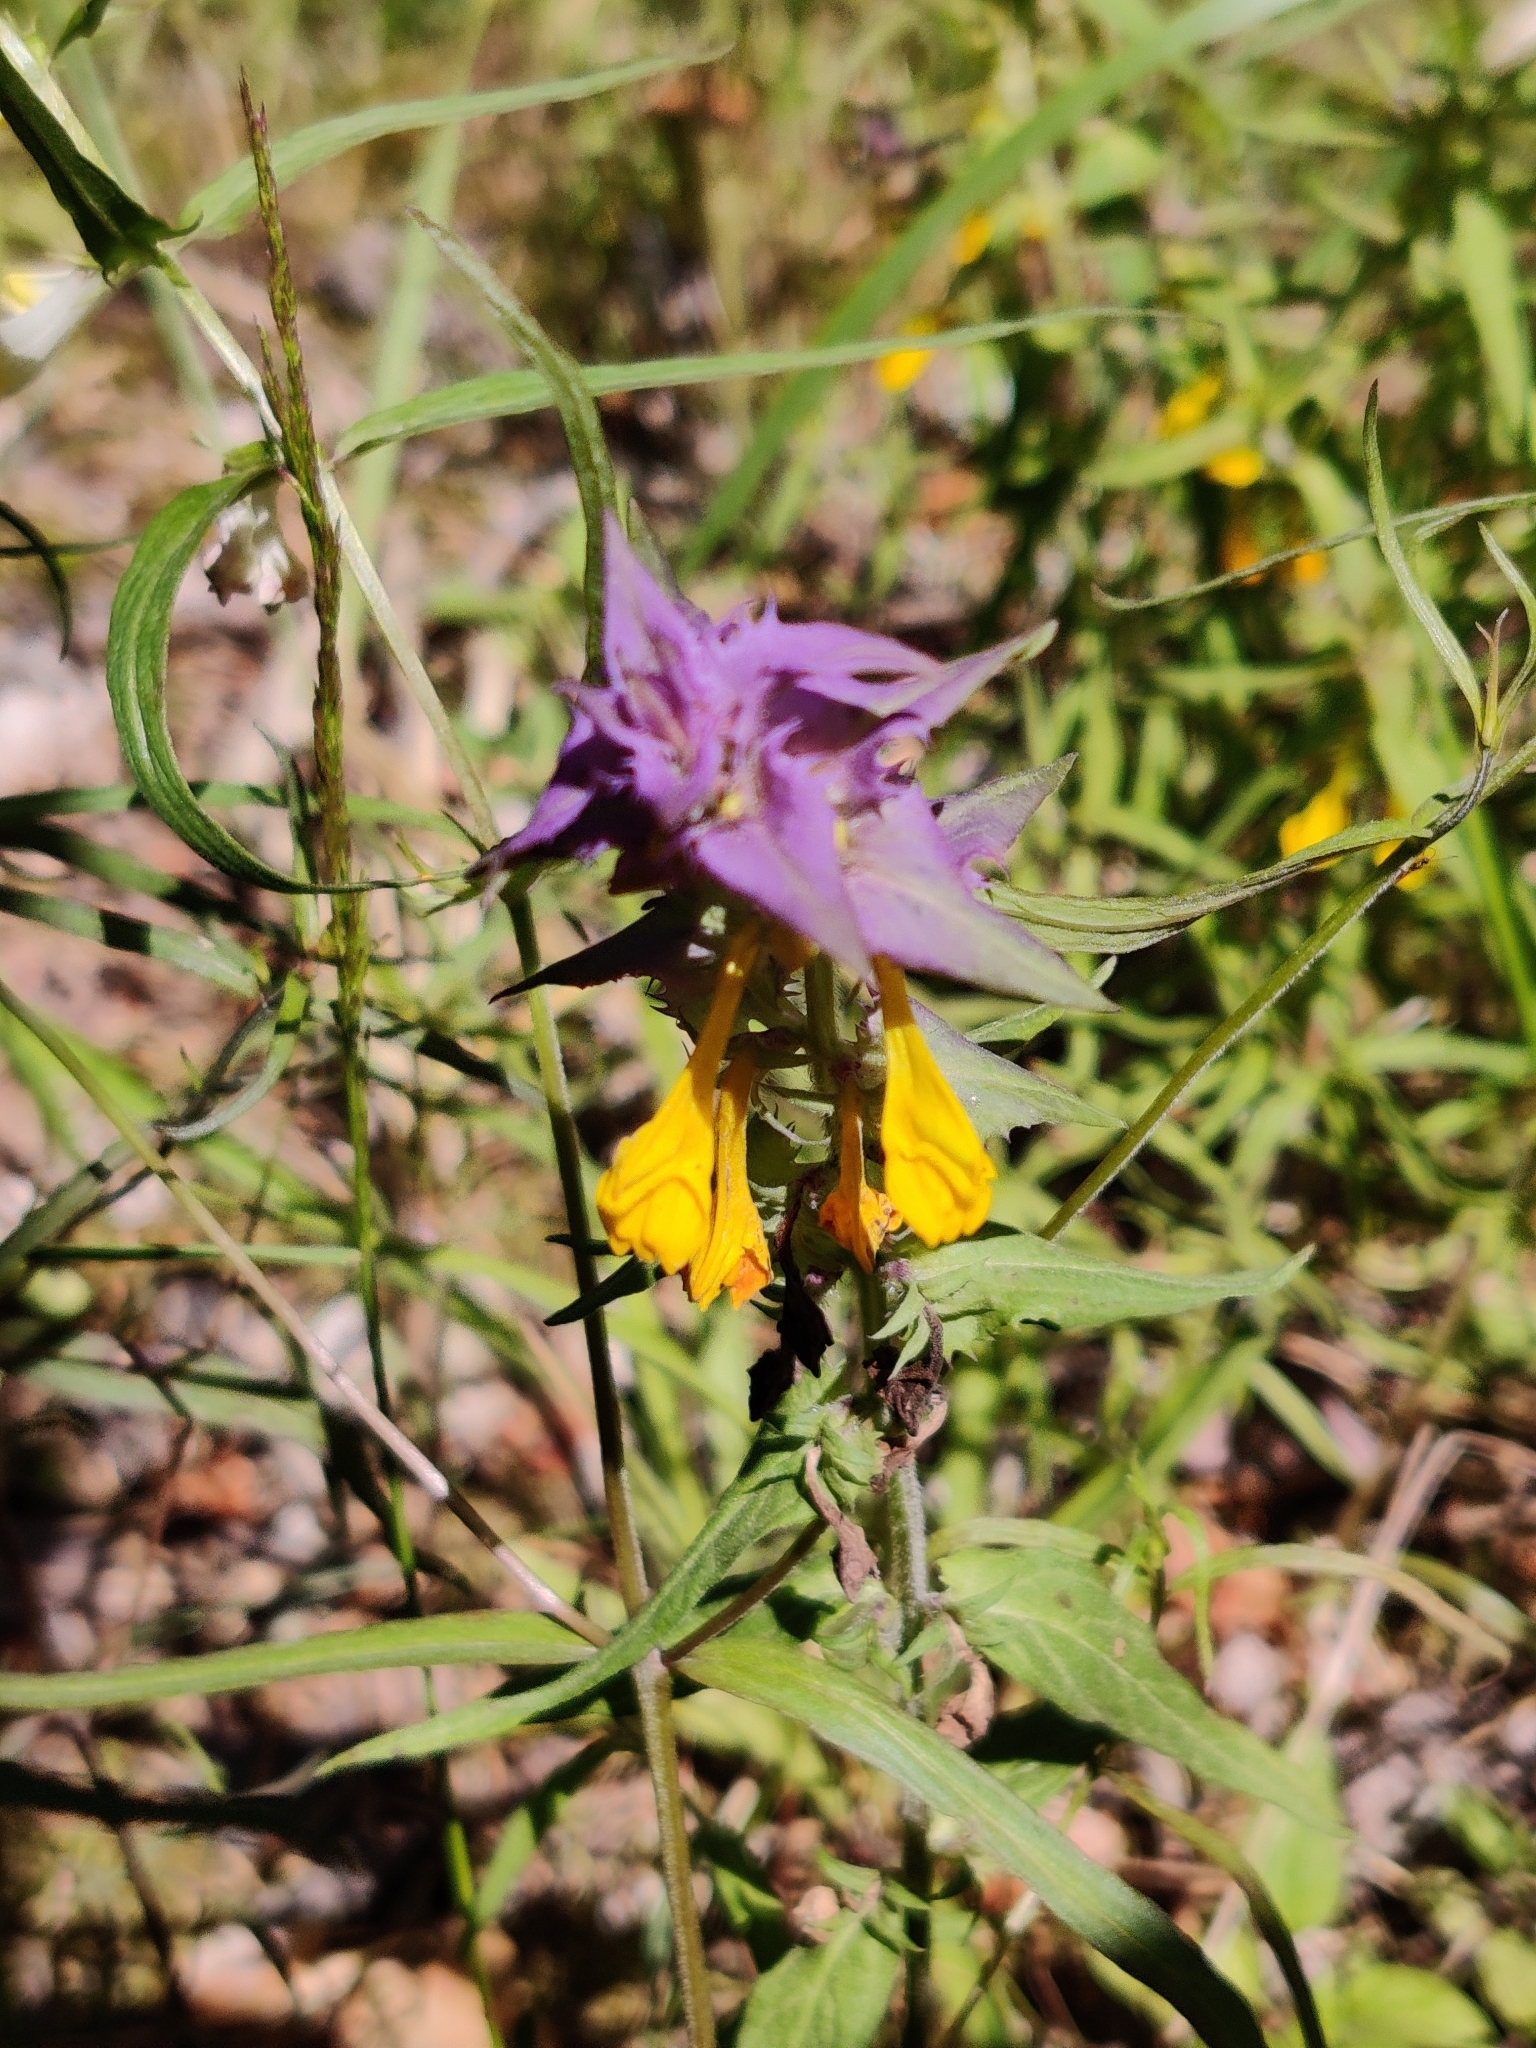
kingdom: Plantae
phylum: Tracheophyta
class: Magnoliopsida
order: Lamiales
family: Orobanchaceae
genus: Melampyrum
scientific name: Melampyrum nemorosum
